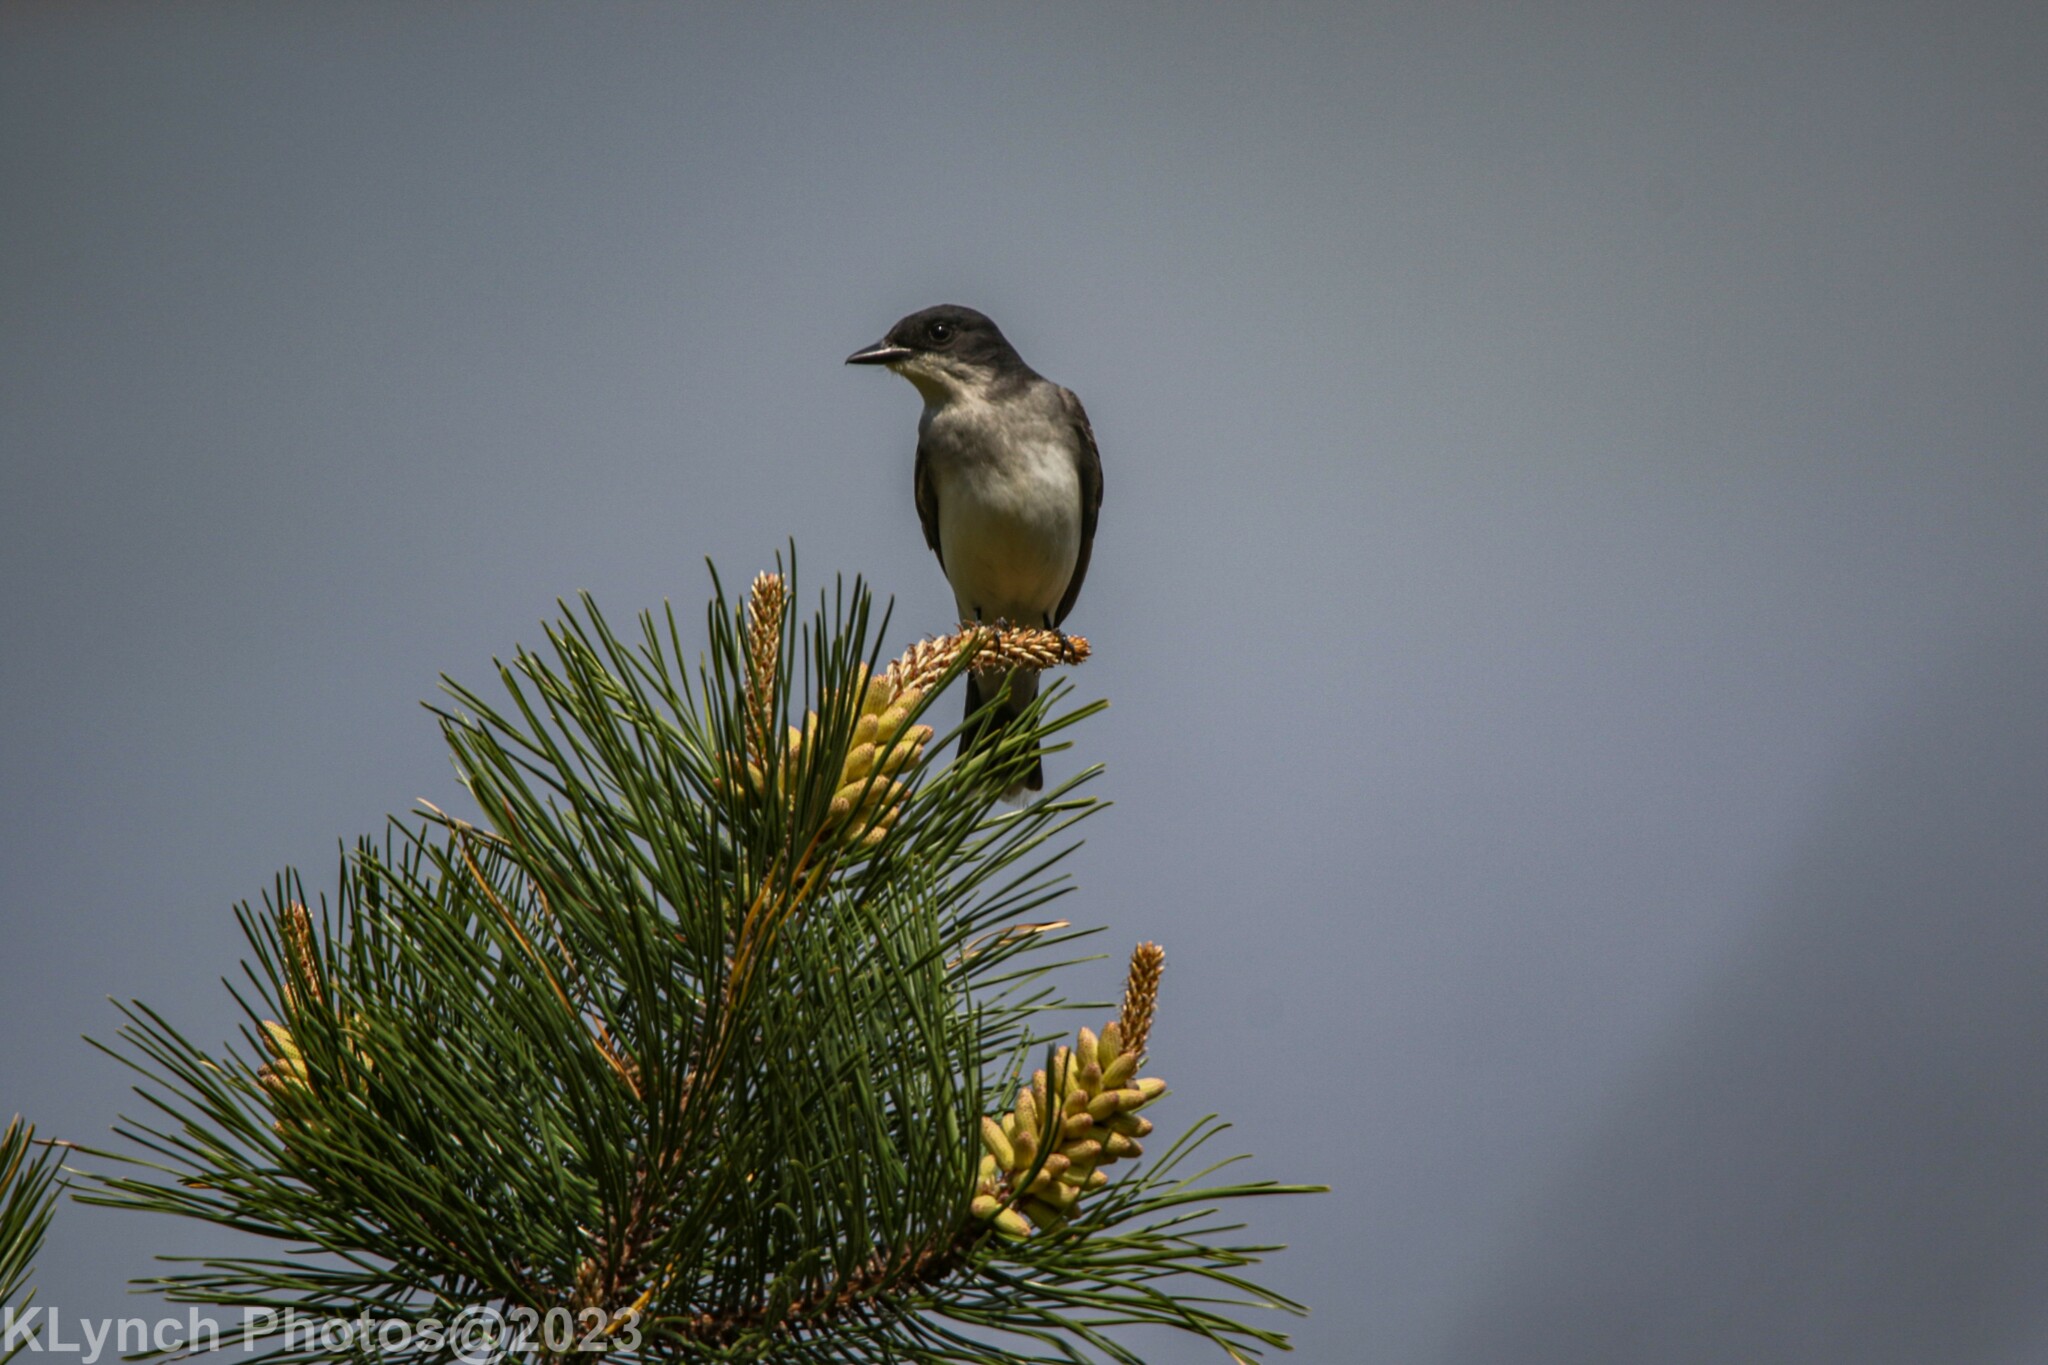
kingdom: Animalia
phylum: Chordata
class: Aves
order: Passeriformes
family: Tyrannidae
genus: Tyrannus
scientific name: Tyrannus tyrannus
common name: Eastern kingbird
